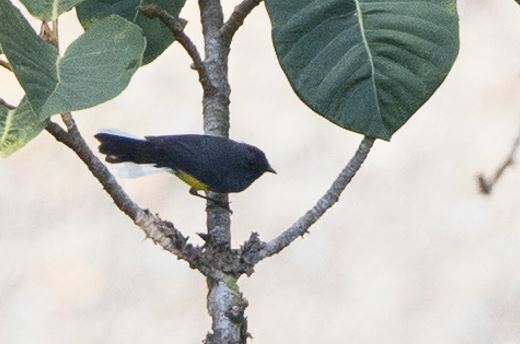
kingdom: Animalia
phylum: Chordata
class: Aves
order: Passeriformes
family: Parulidae
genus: Myioborus
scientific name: Myioborus miniatus
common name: Slate-throated redstart
